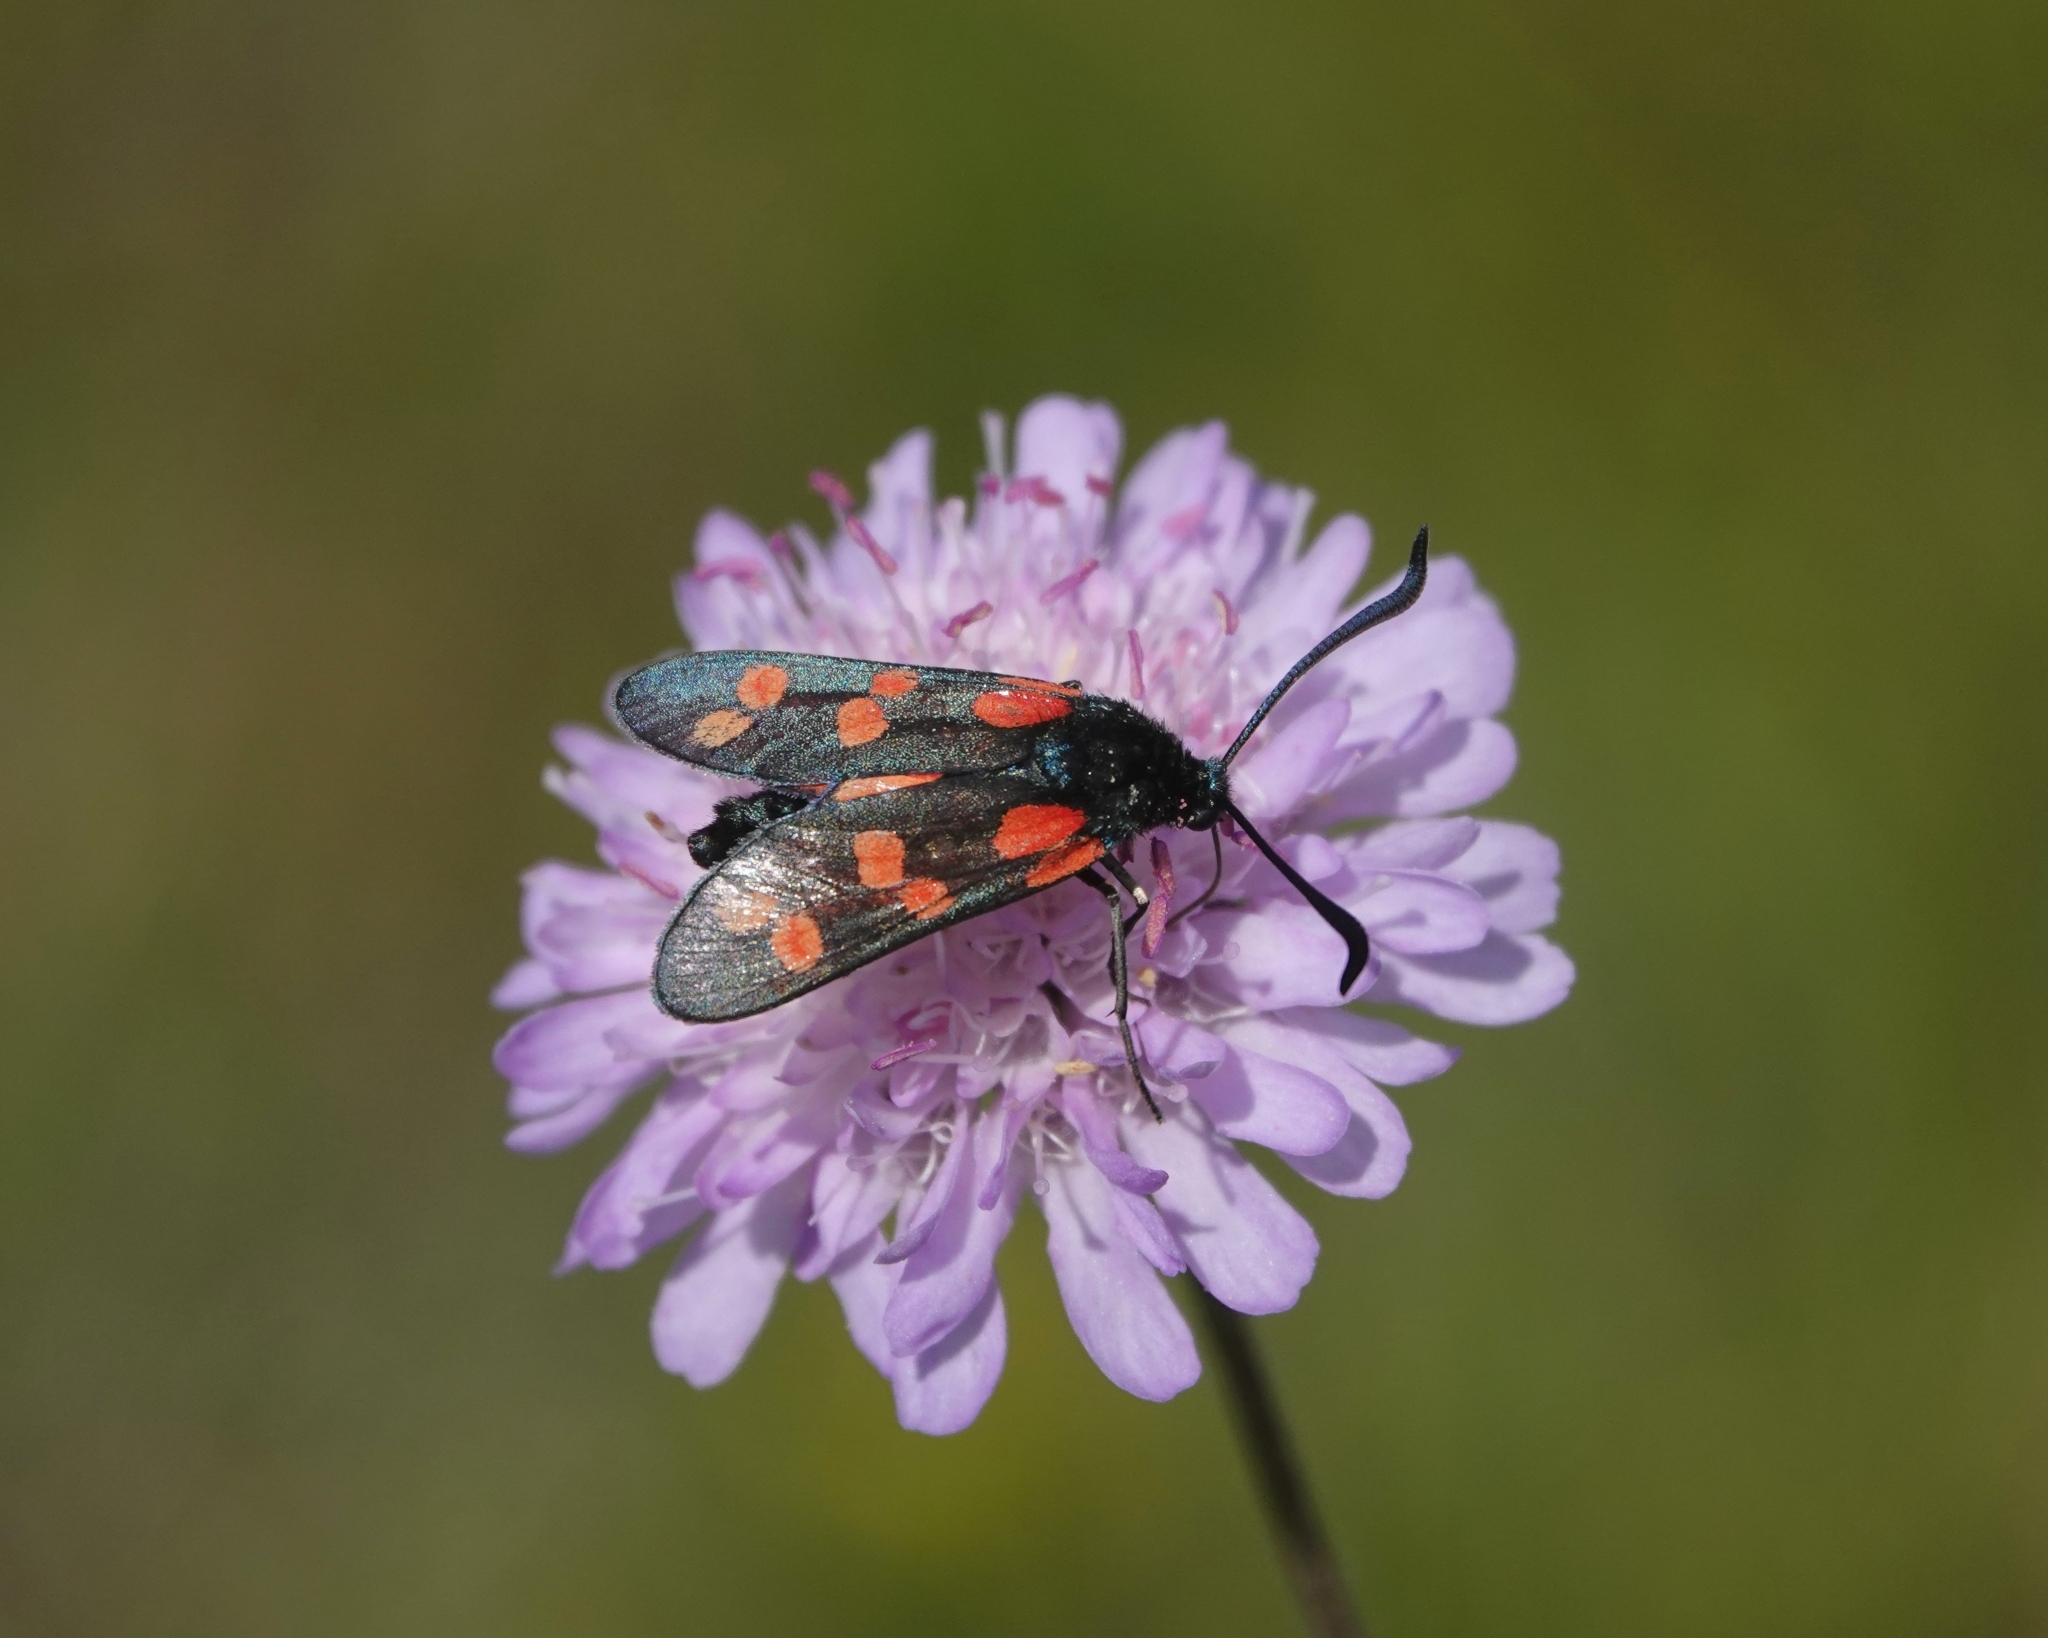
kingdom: Animalia
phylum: Arthropoda
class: Insecta
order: Lepidoptera
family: Zygaenidae
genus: Zygaena
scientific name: Zygaena filipendulae
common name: Six-spot burnet
